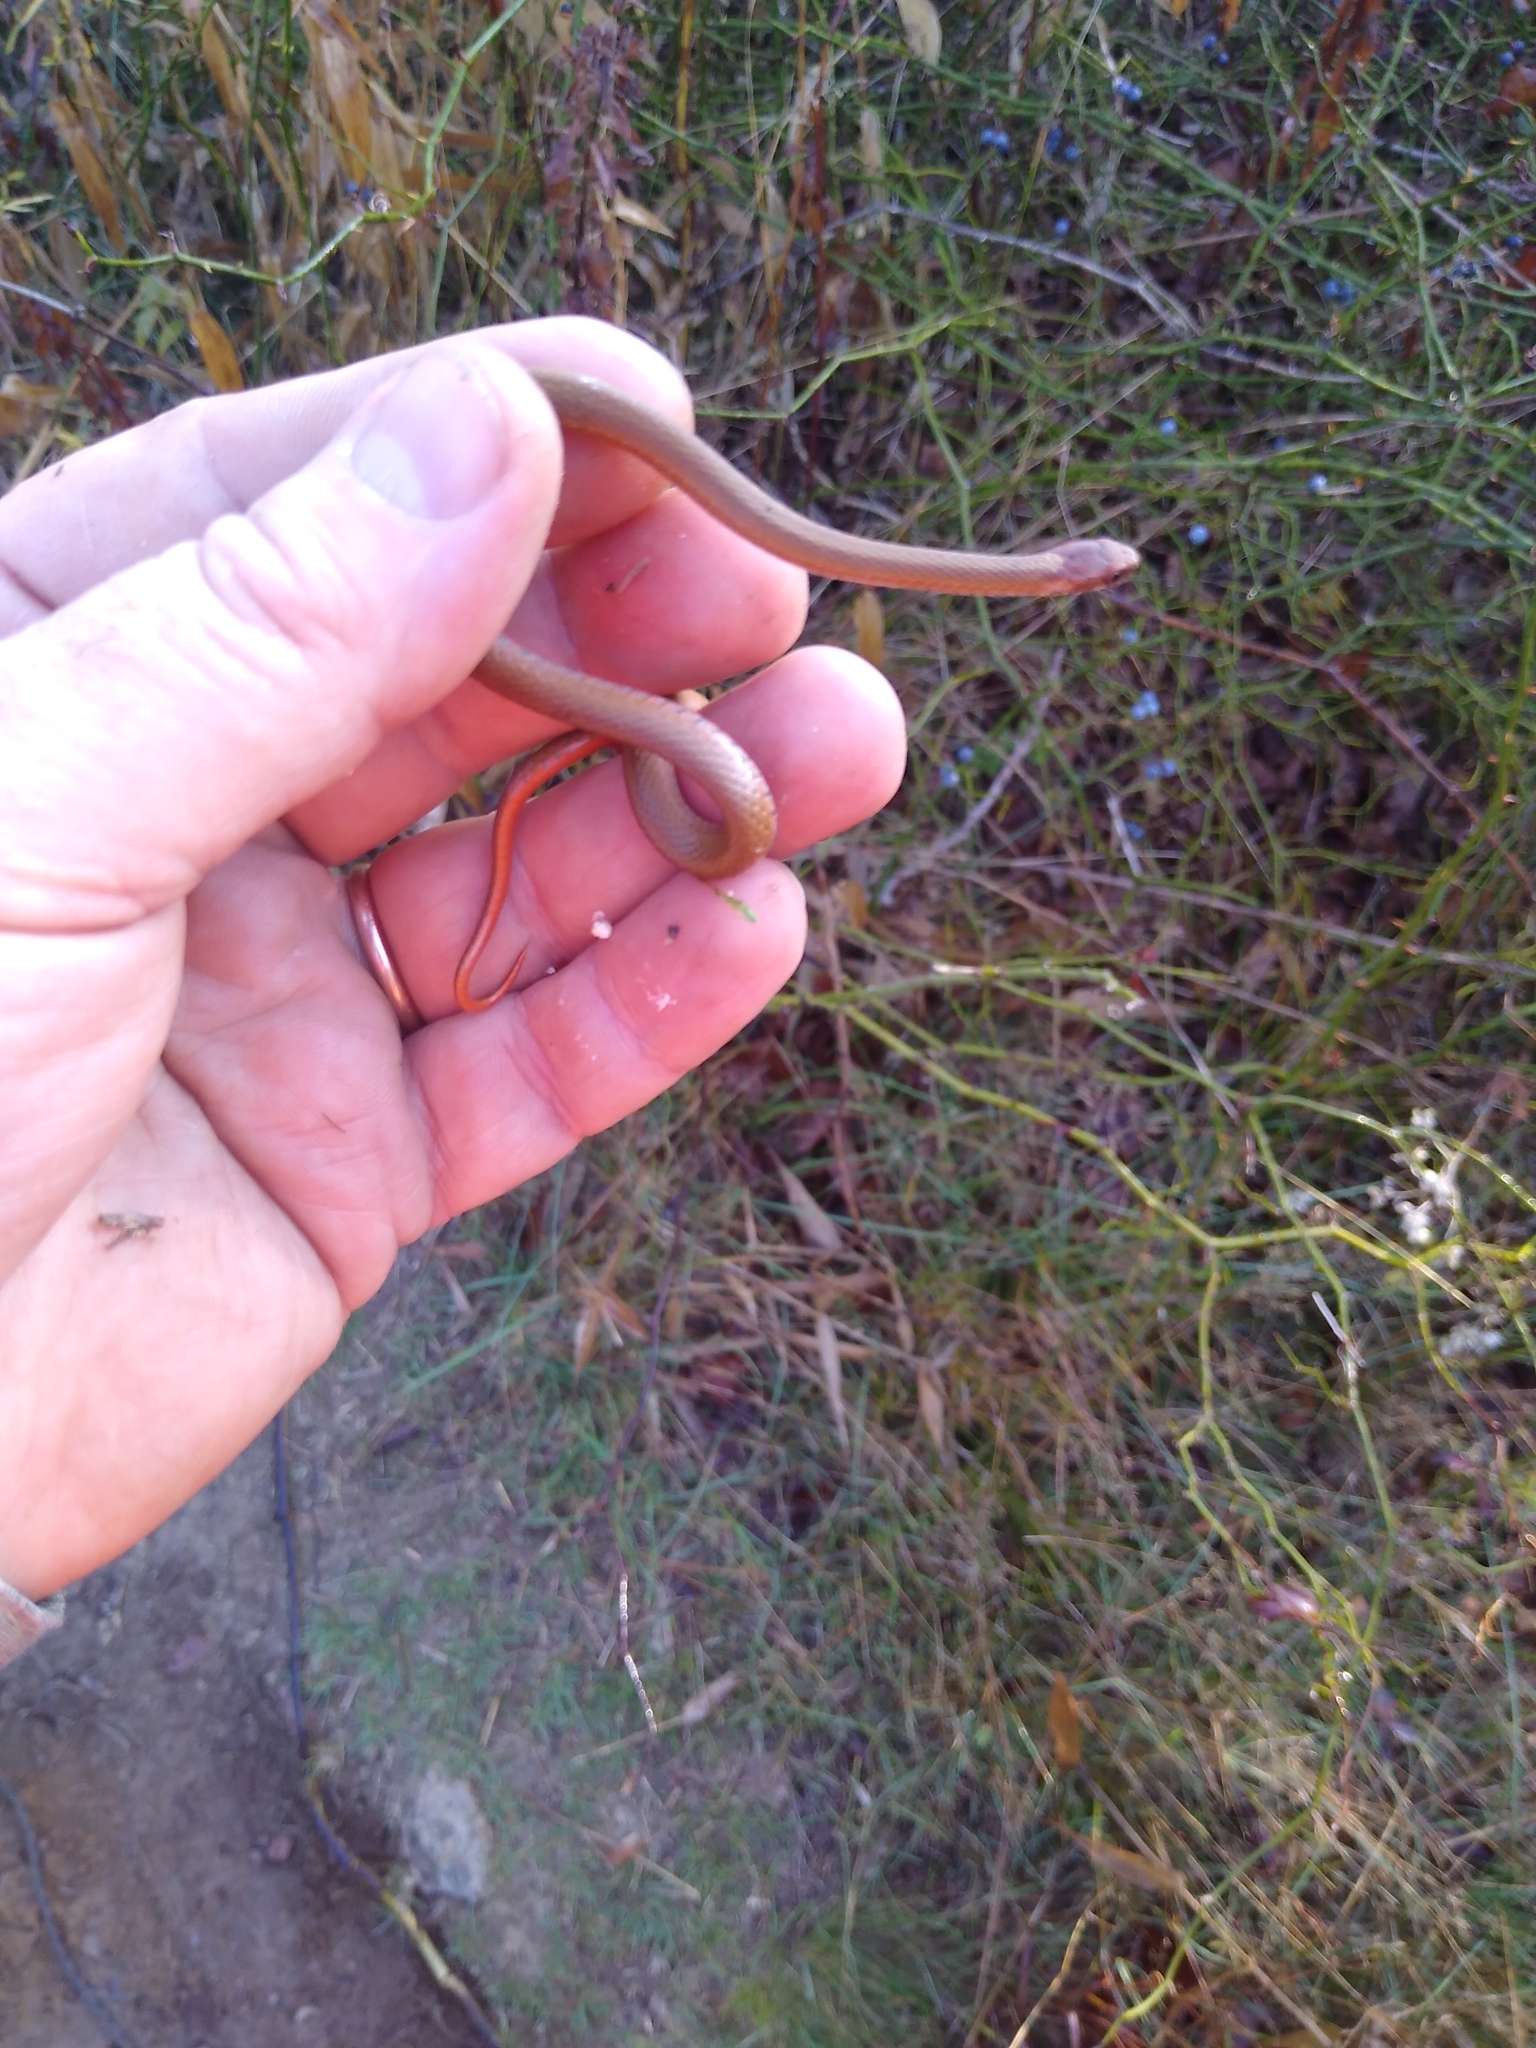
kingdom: Animalia
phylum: Chordata
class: Squamata
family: Colubridae
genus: Storeria
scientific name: Storeria occipitomaculata
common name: Redbelly snake
